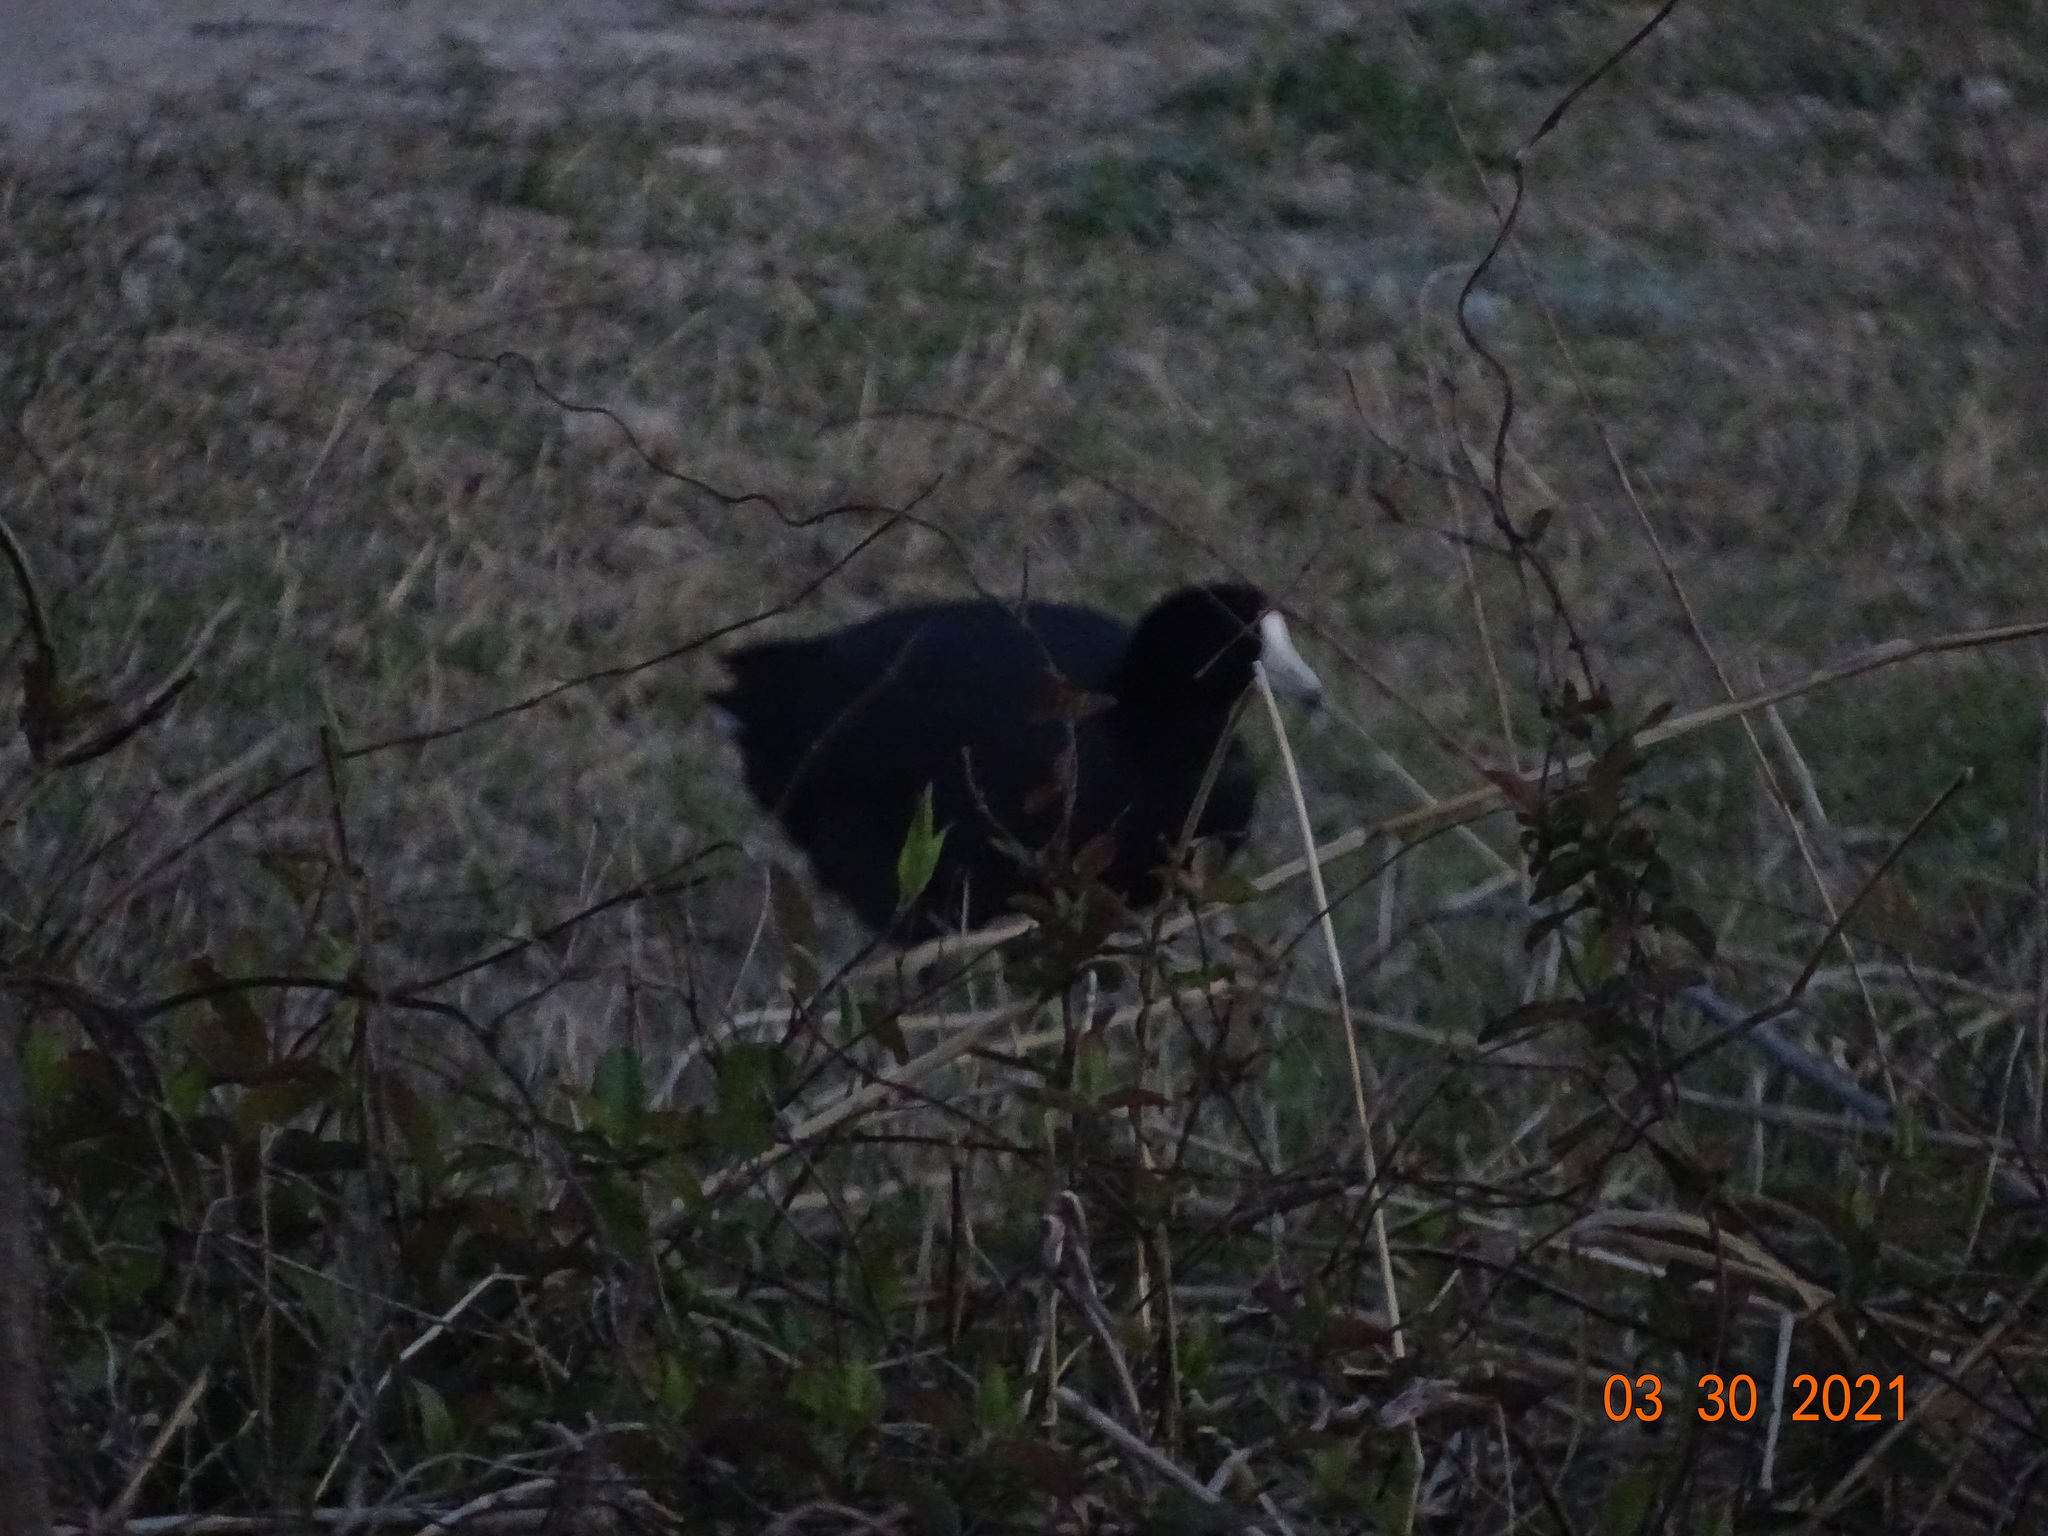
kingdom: Animalia
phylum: Chordata
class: Aves
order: Gruiformes
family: Rallidae
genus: Fulica
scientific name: Fulica americana
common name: American coot
